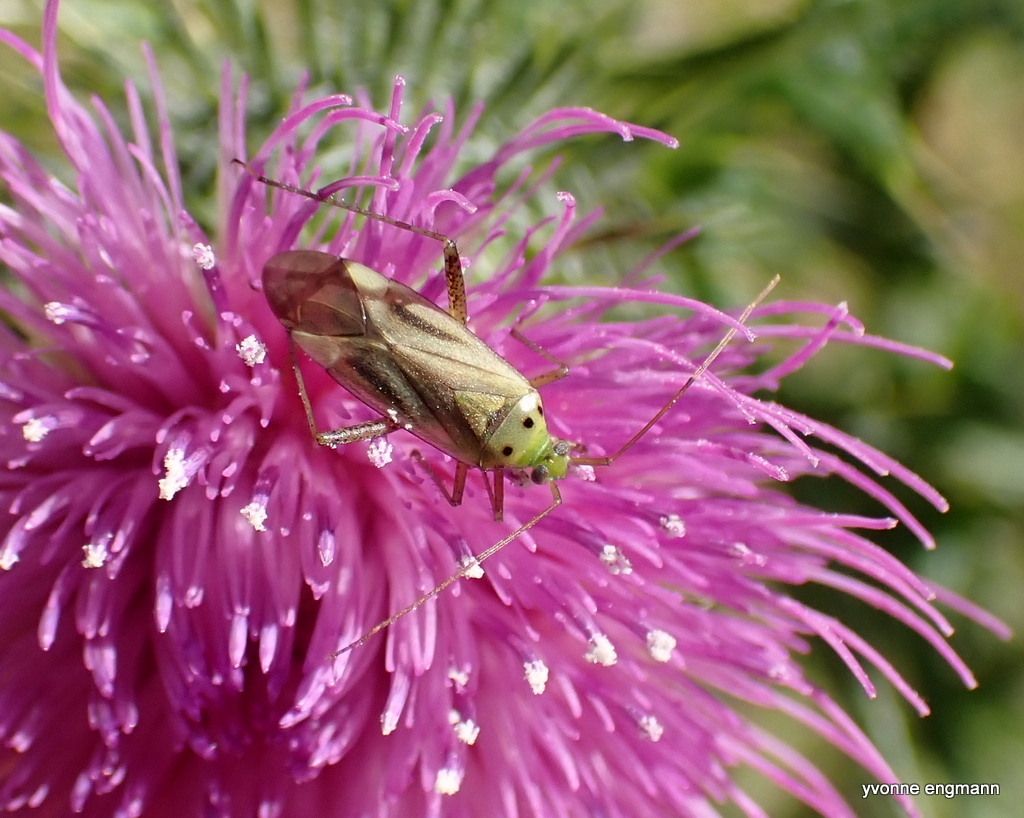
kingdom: Animalia
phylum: Arthropoda
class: Insecta
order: Hemiptera
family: Miridae
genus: Adelphocoris
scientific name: Adelphocoris quadripunctatus
